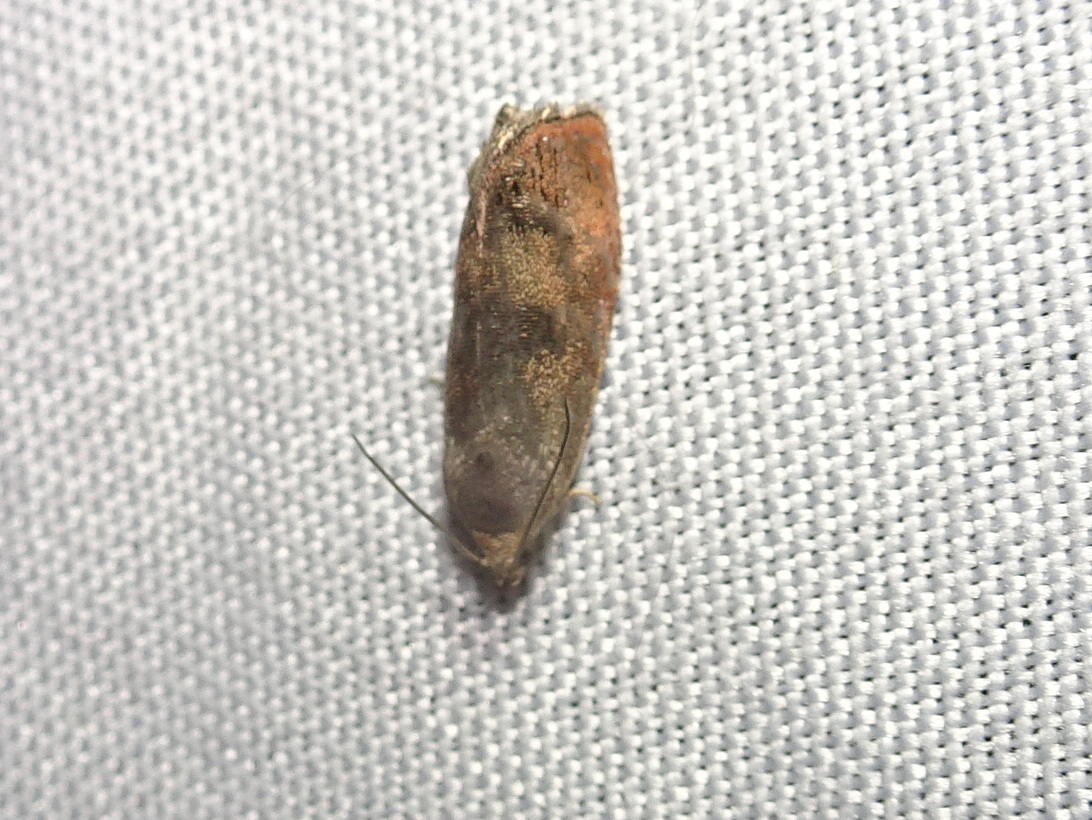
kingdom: Animalia
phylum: Arthropoda
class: Insecta
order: Lepidoptera
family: Tortricidae
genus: Cydia
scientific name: Cydia latiferreana
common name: Filbertworm moth
